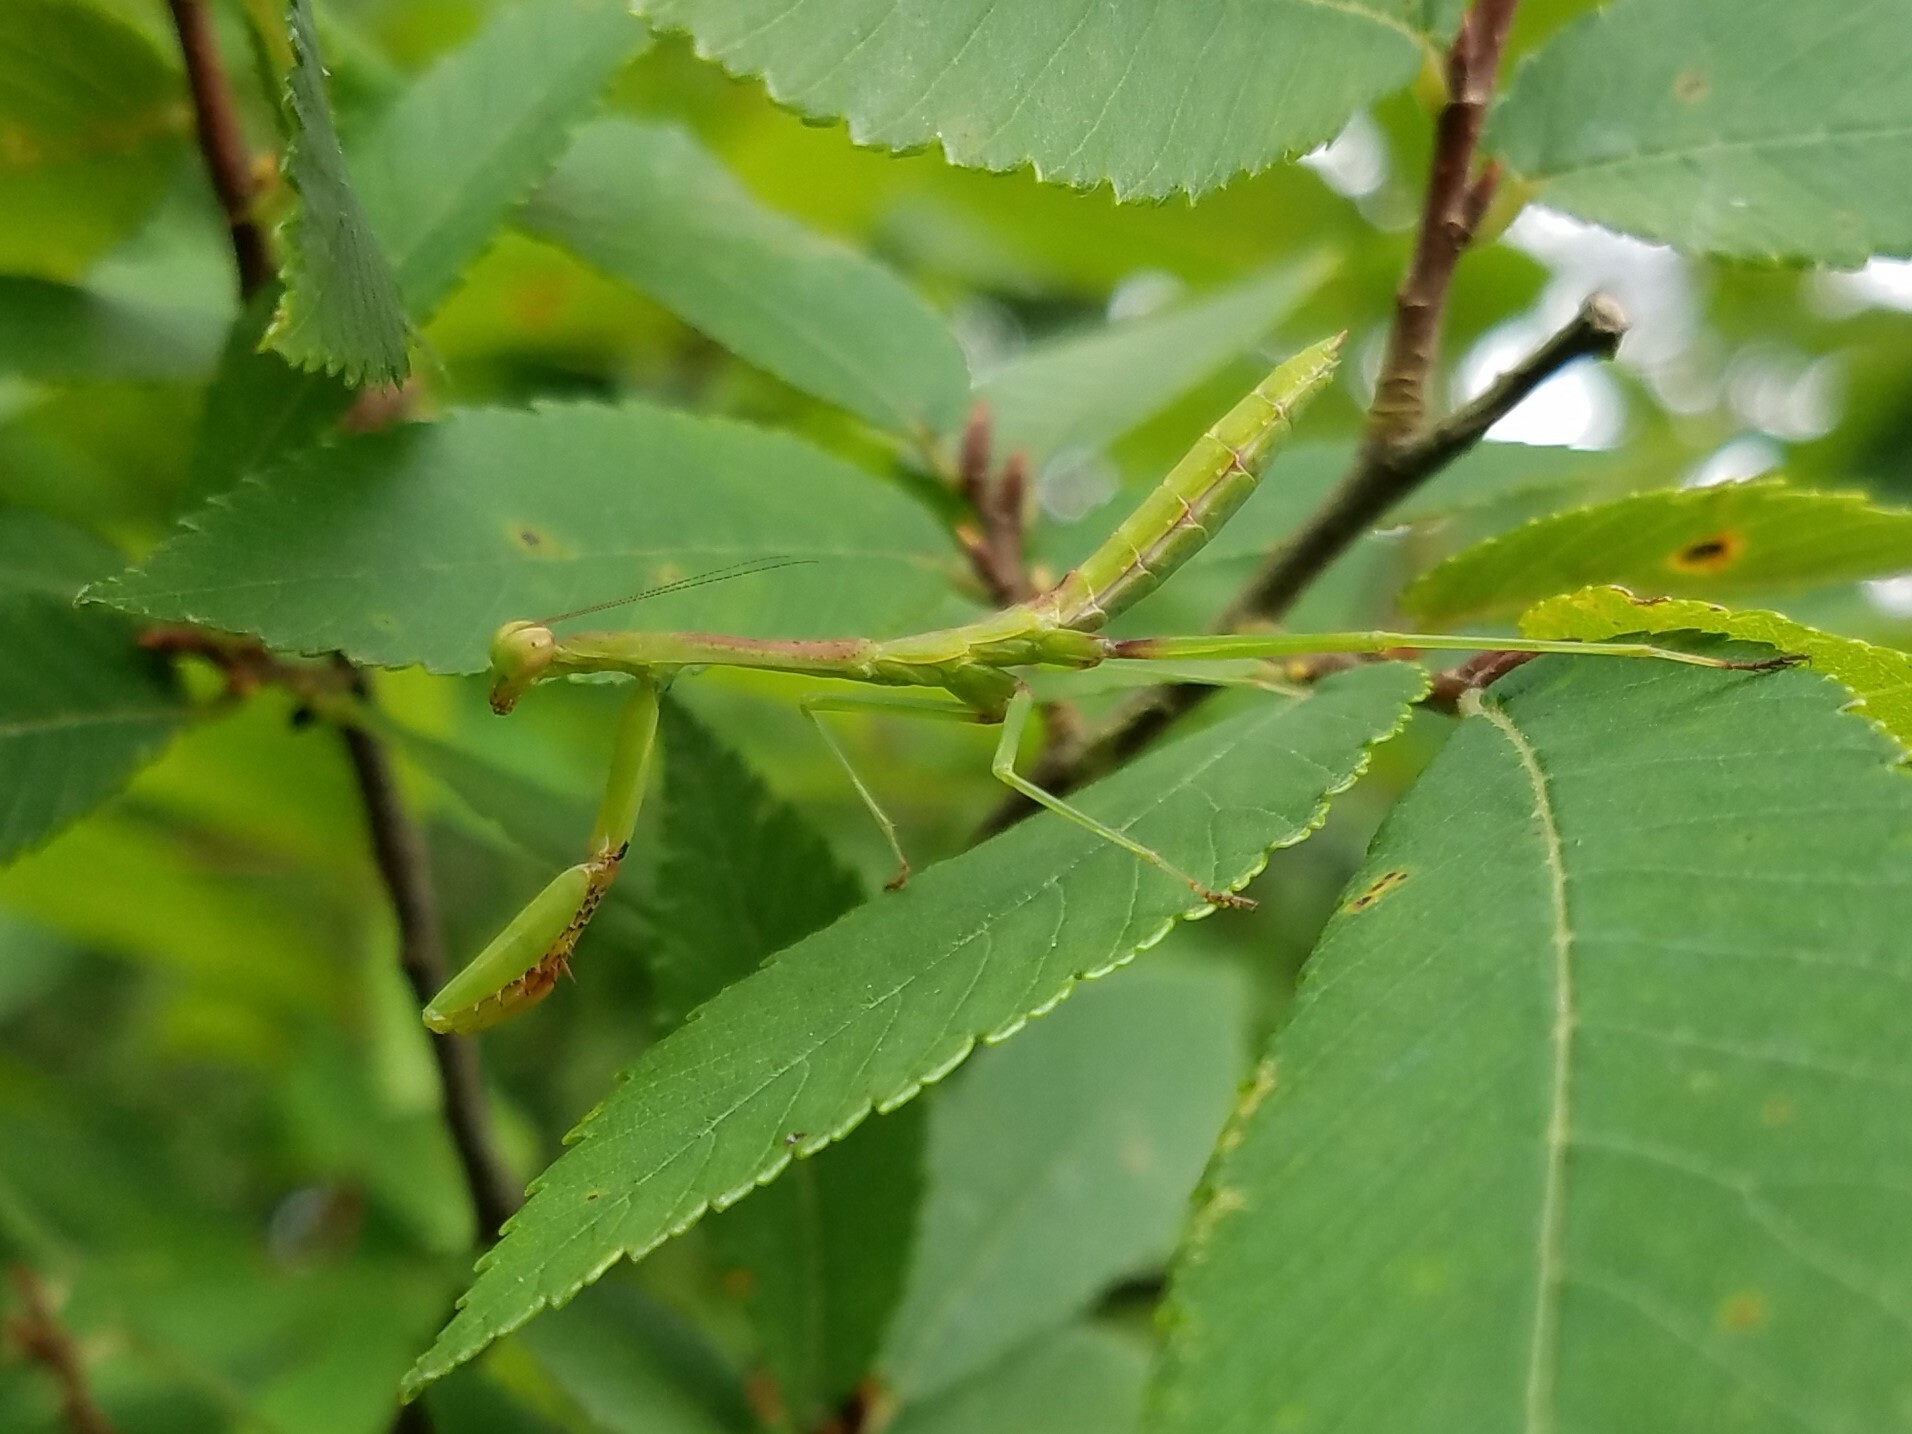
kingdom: Animalia
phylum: Arthropoda
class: Insecta
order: Mantodea
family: Mantidae
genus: Stagmomantis
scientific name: Stagmomantis carolina
